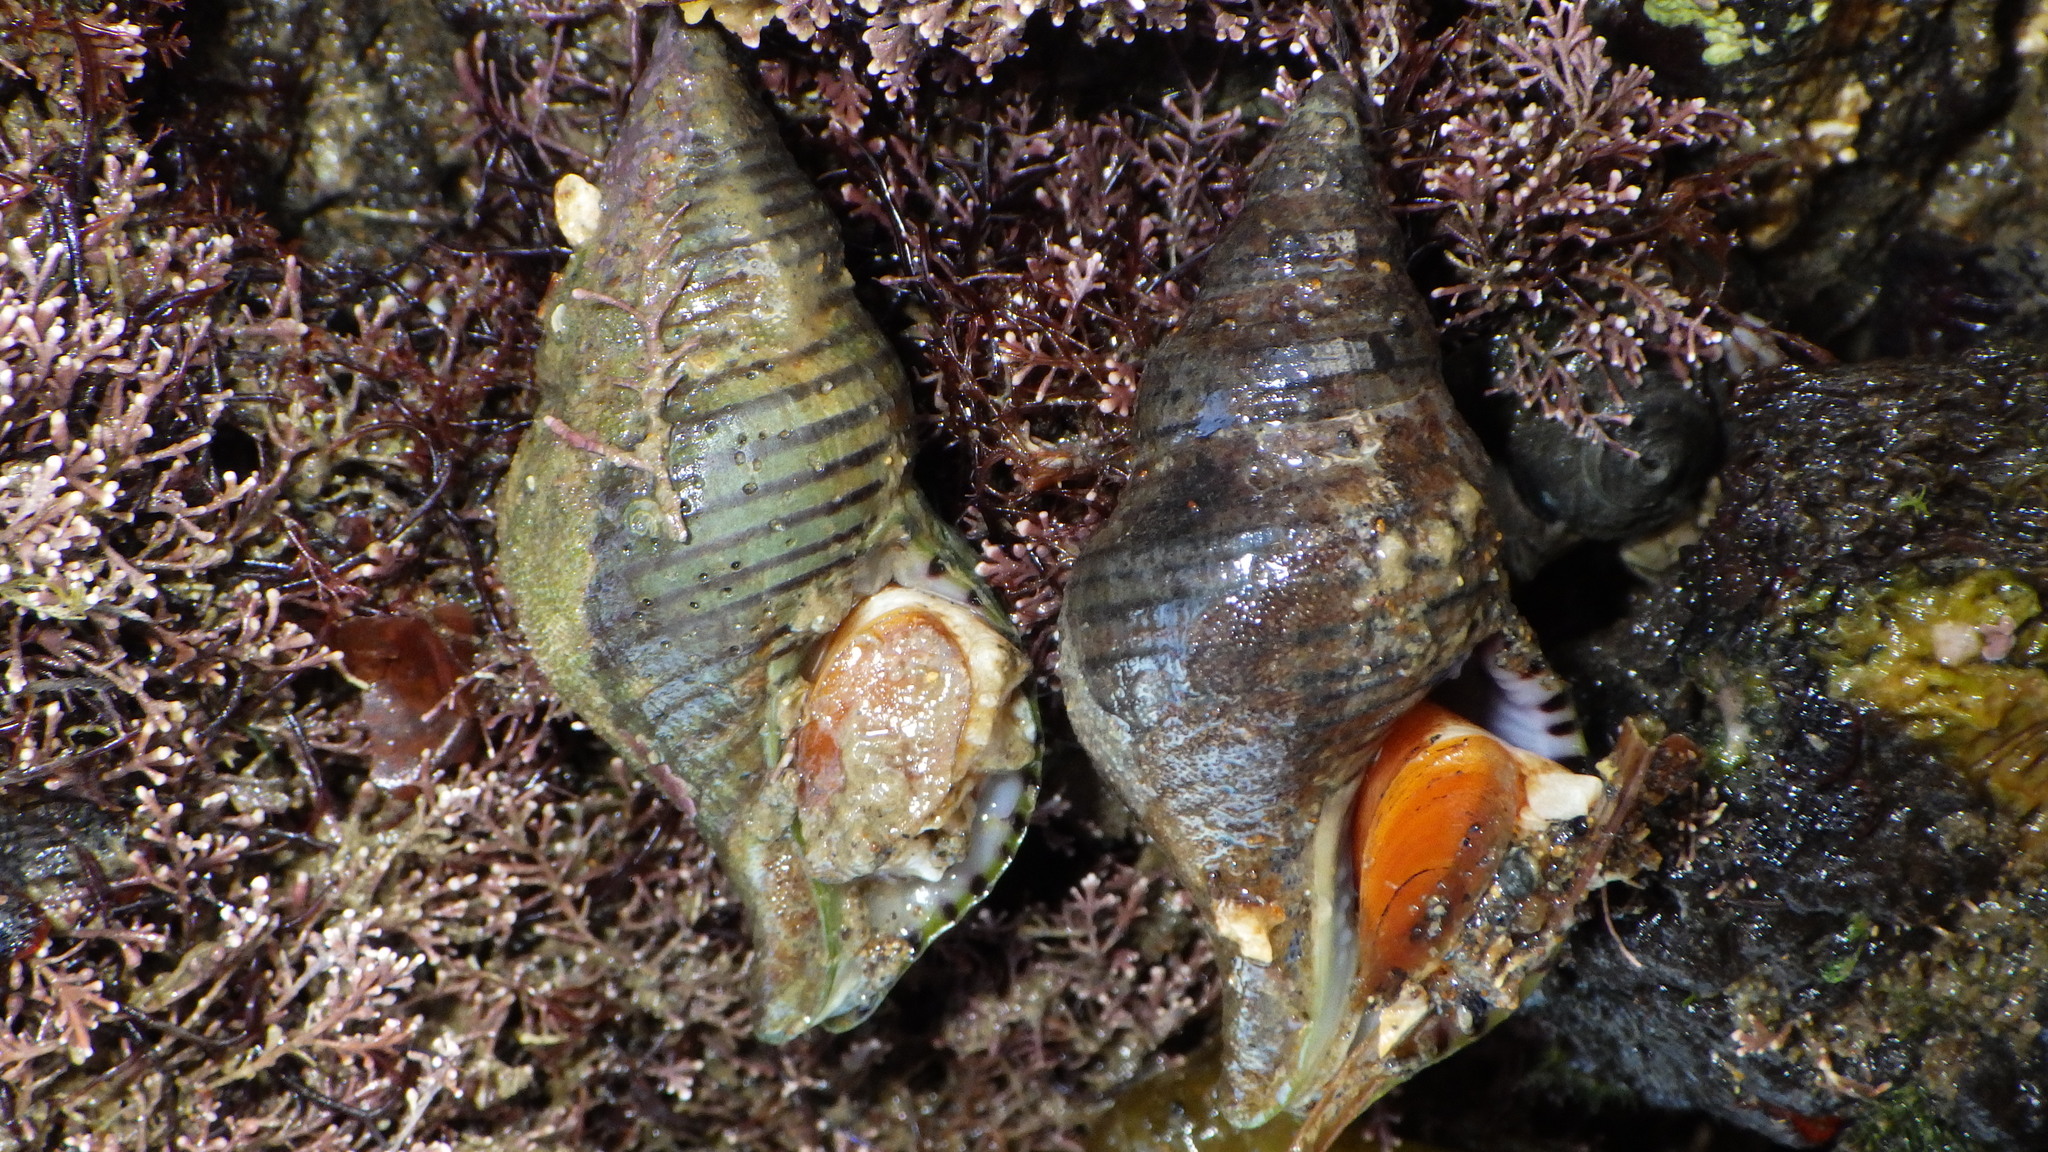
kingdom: Animalia
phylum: Mollusca
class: Gastropoda
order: Neogastropoda
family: Tudiclidae
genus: Buccinulum
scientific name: Buccinulum linea
